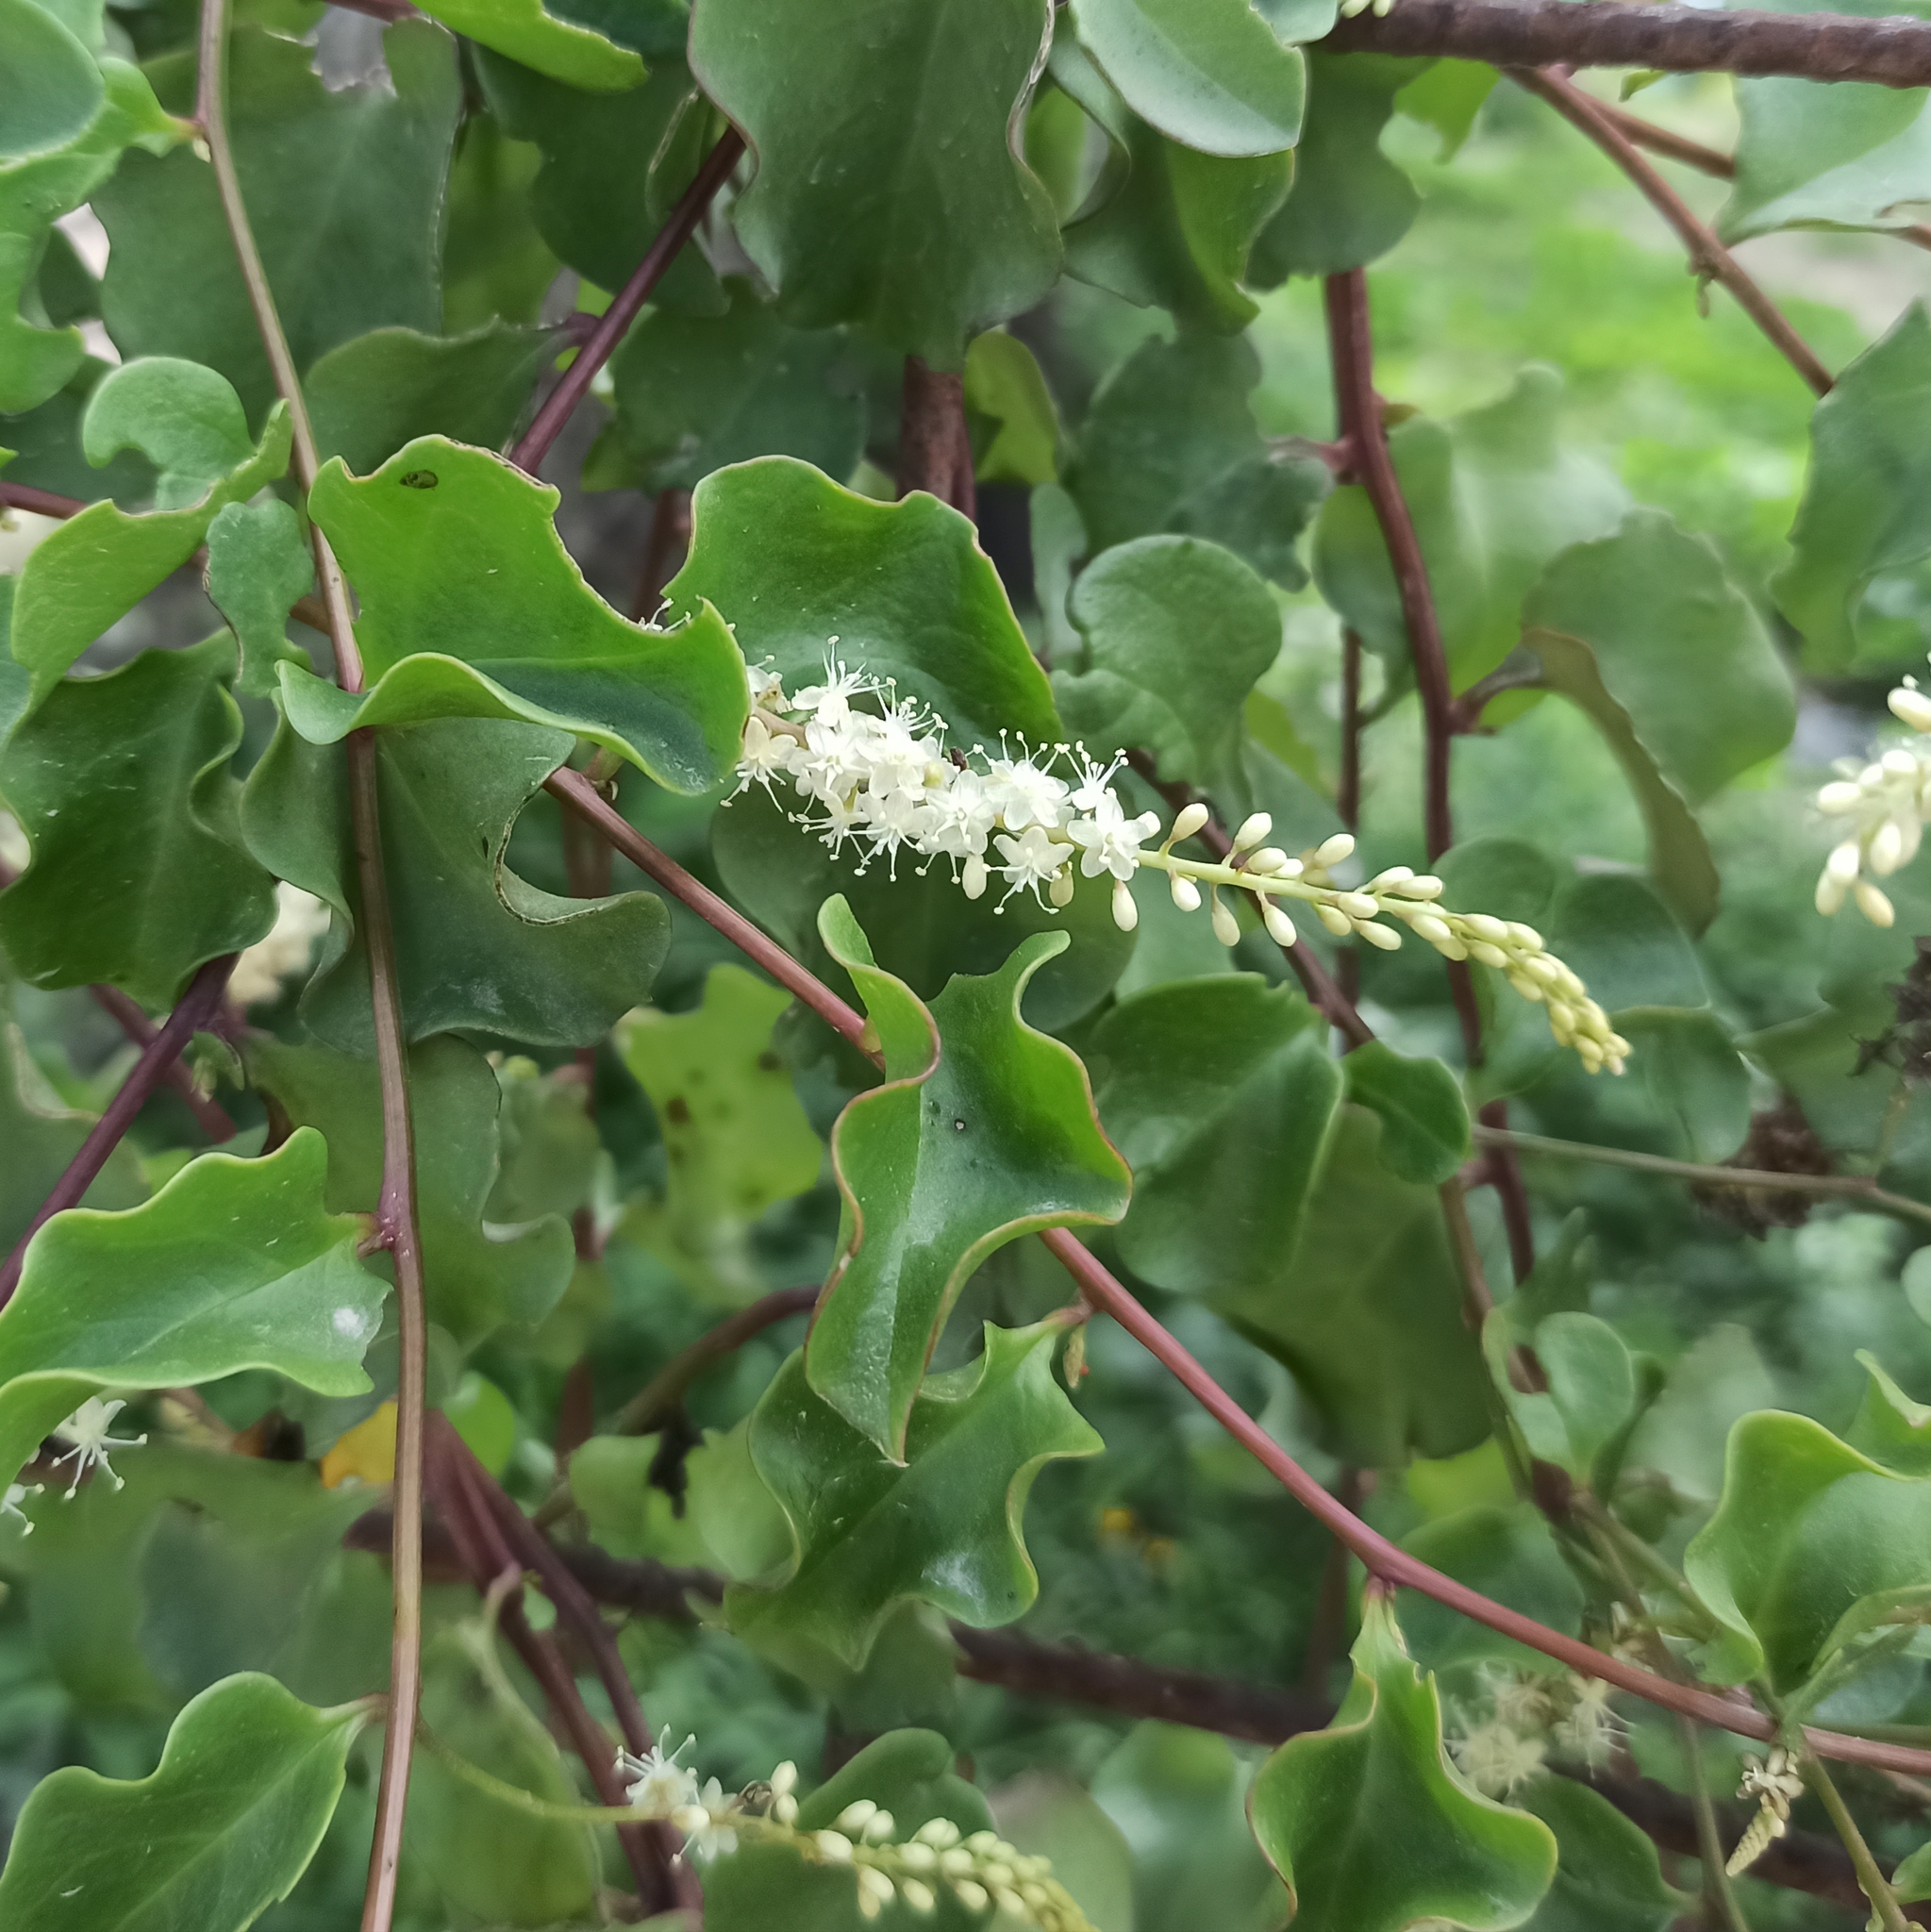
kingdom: Plantae
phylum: Tracheophyta
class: Magnoliopsida
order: Caryophyllales
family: Basellaceae
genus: Anredera
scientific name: Anredera cordifolia
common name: Heartleaf madeiravine
